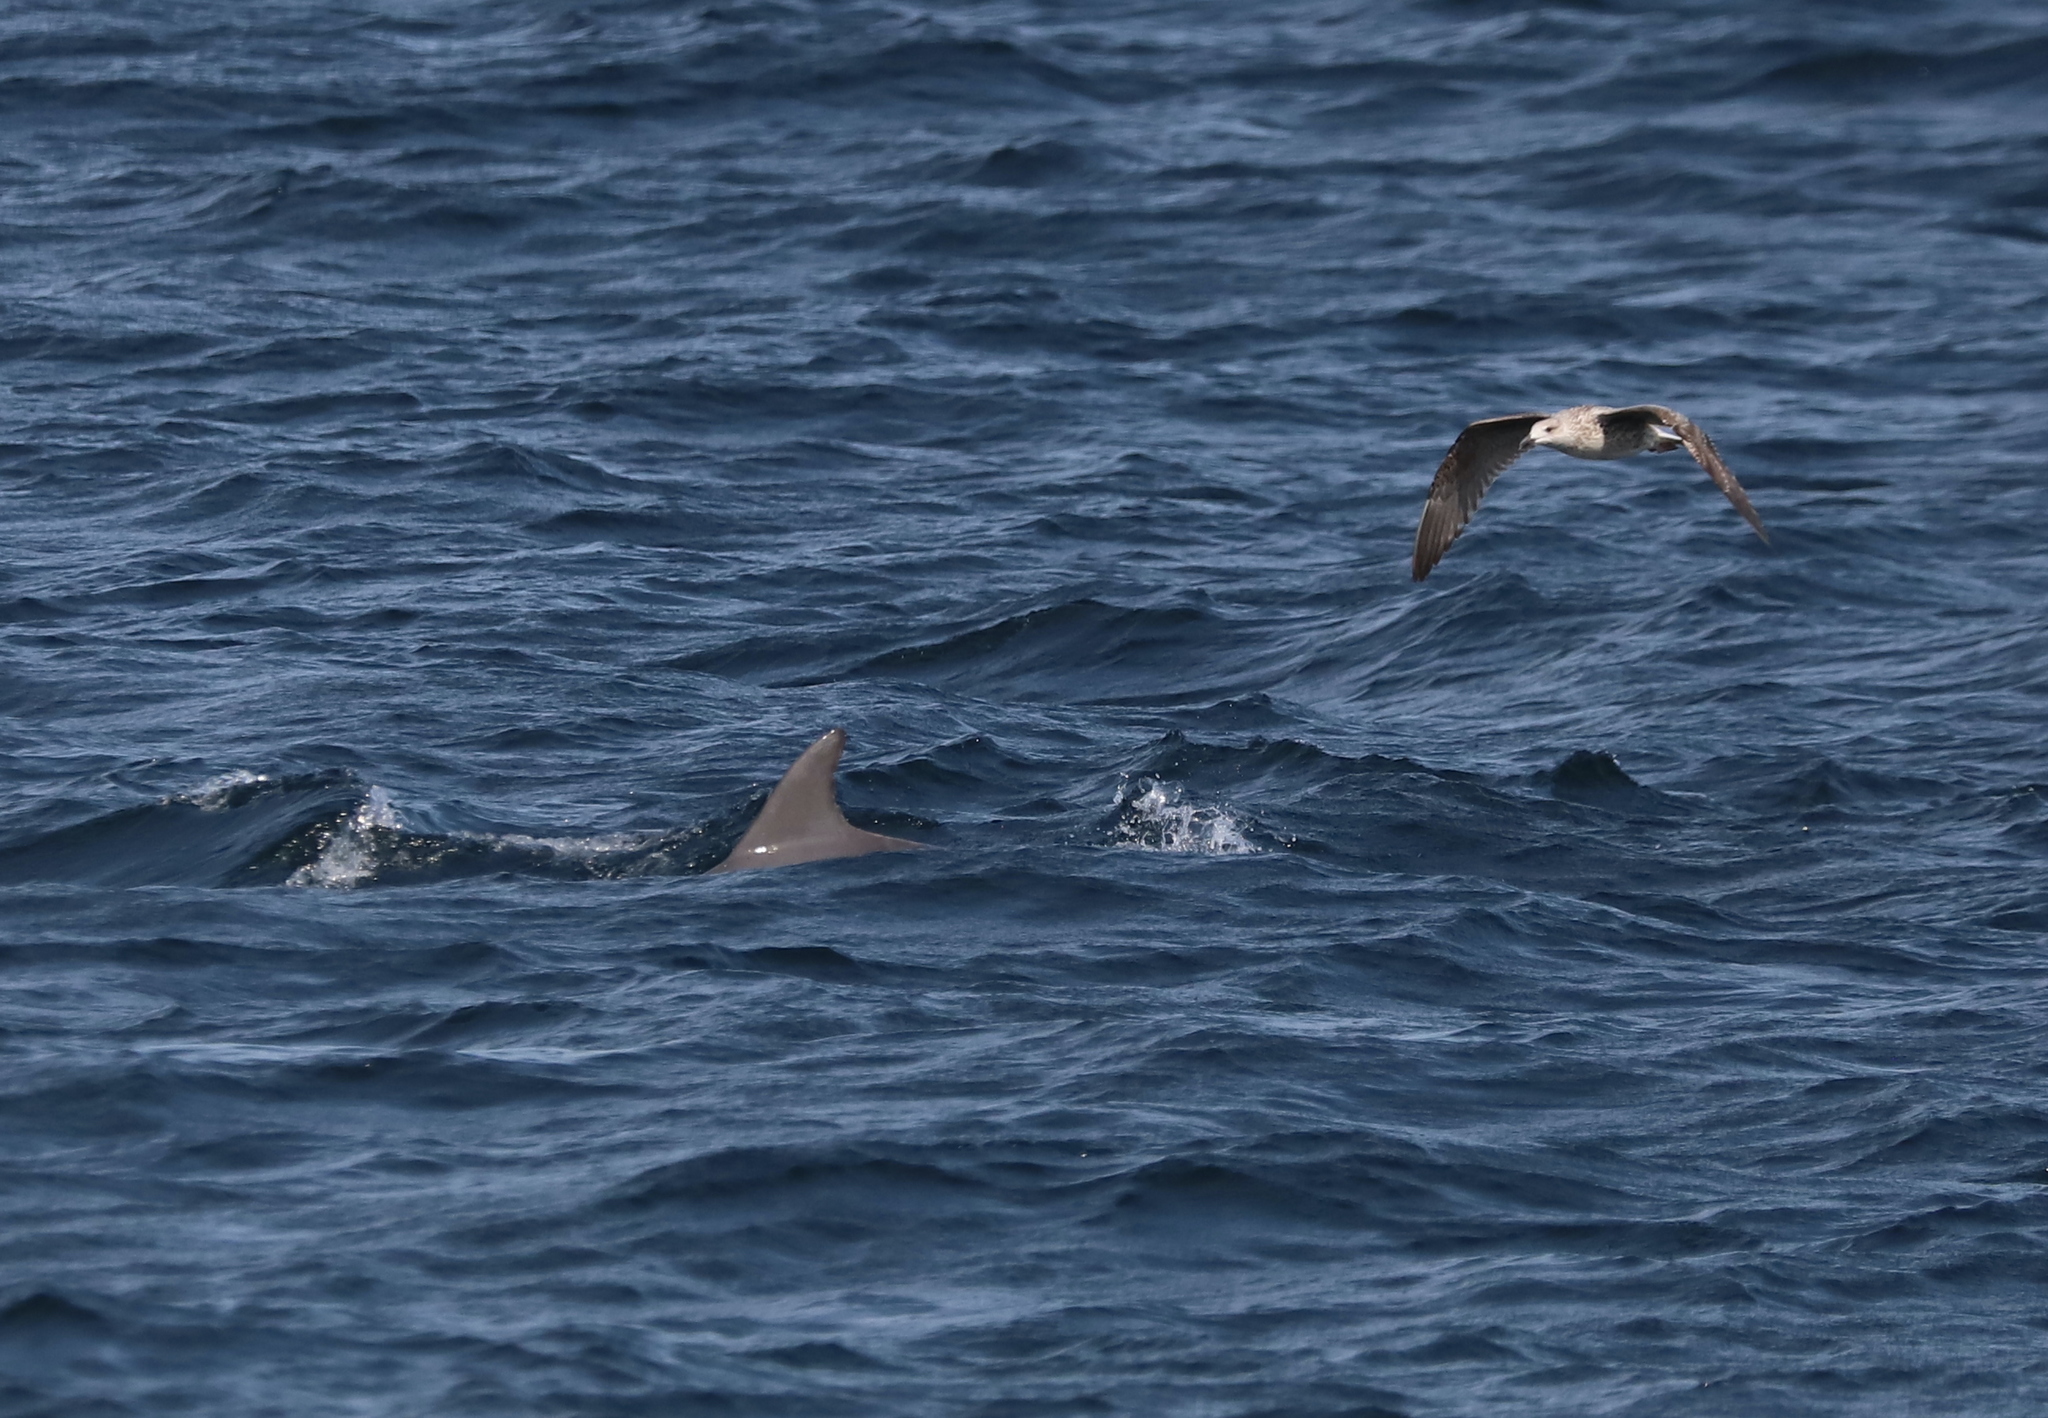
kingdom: Animalia
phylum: Chordata
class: Aves
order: Charadriiformes
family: Laridae
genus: Larus
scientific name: Larus argentatus
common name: Herring gull
